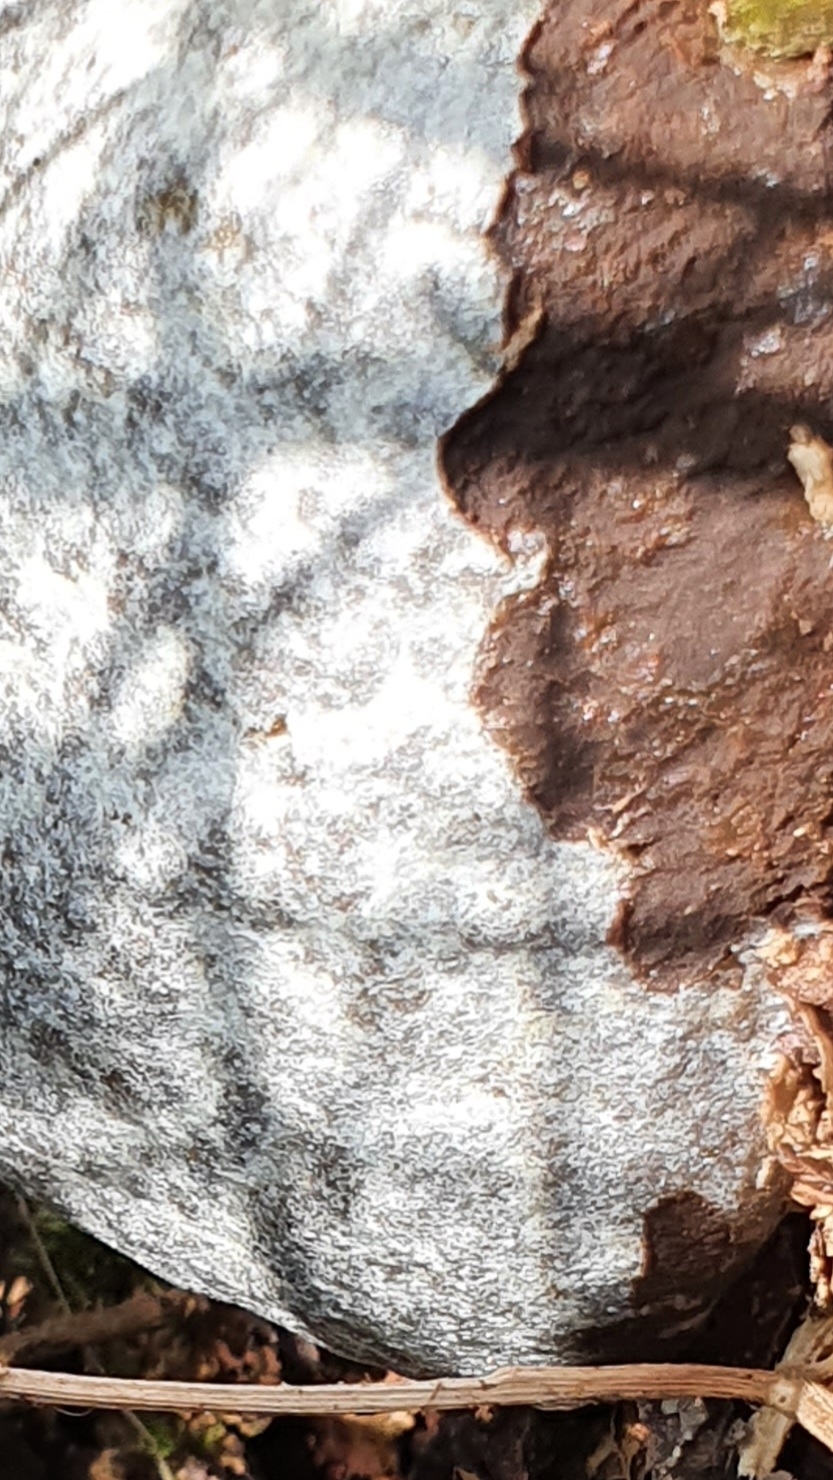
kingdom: Protozoa
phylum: Mycetozoa
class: Myxomycetes
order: Cribrariales
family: Tubiferaceae
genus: Reticularia
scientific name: Reticularia lycoperdon
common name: False puffball
